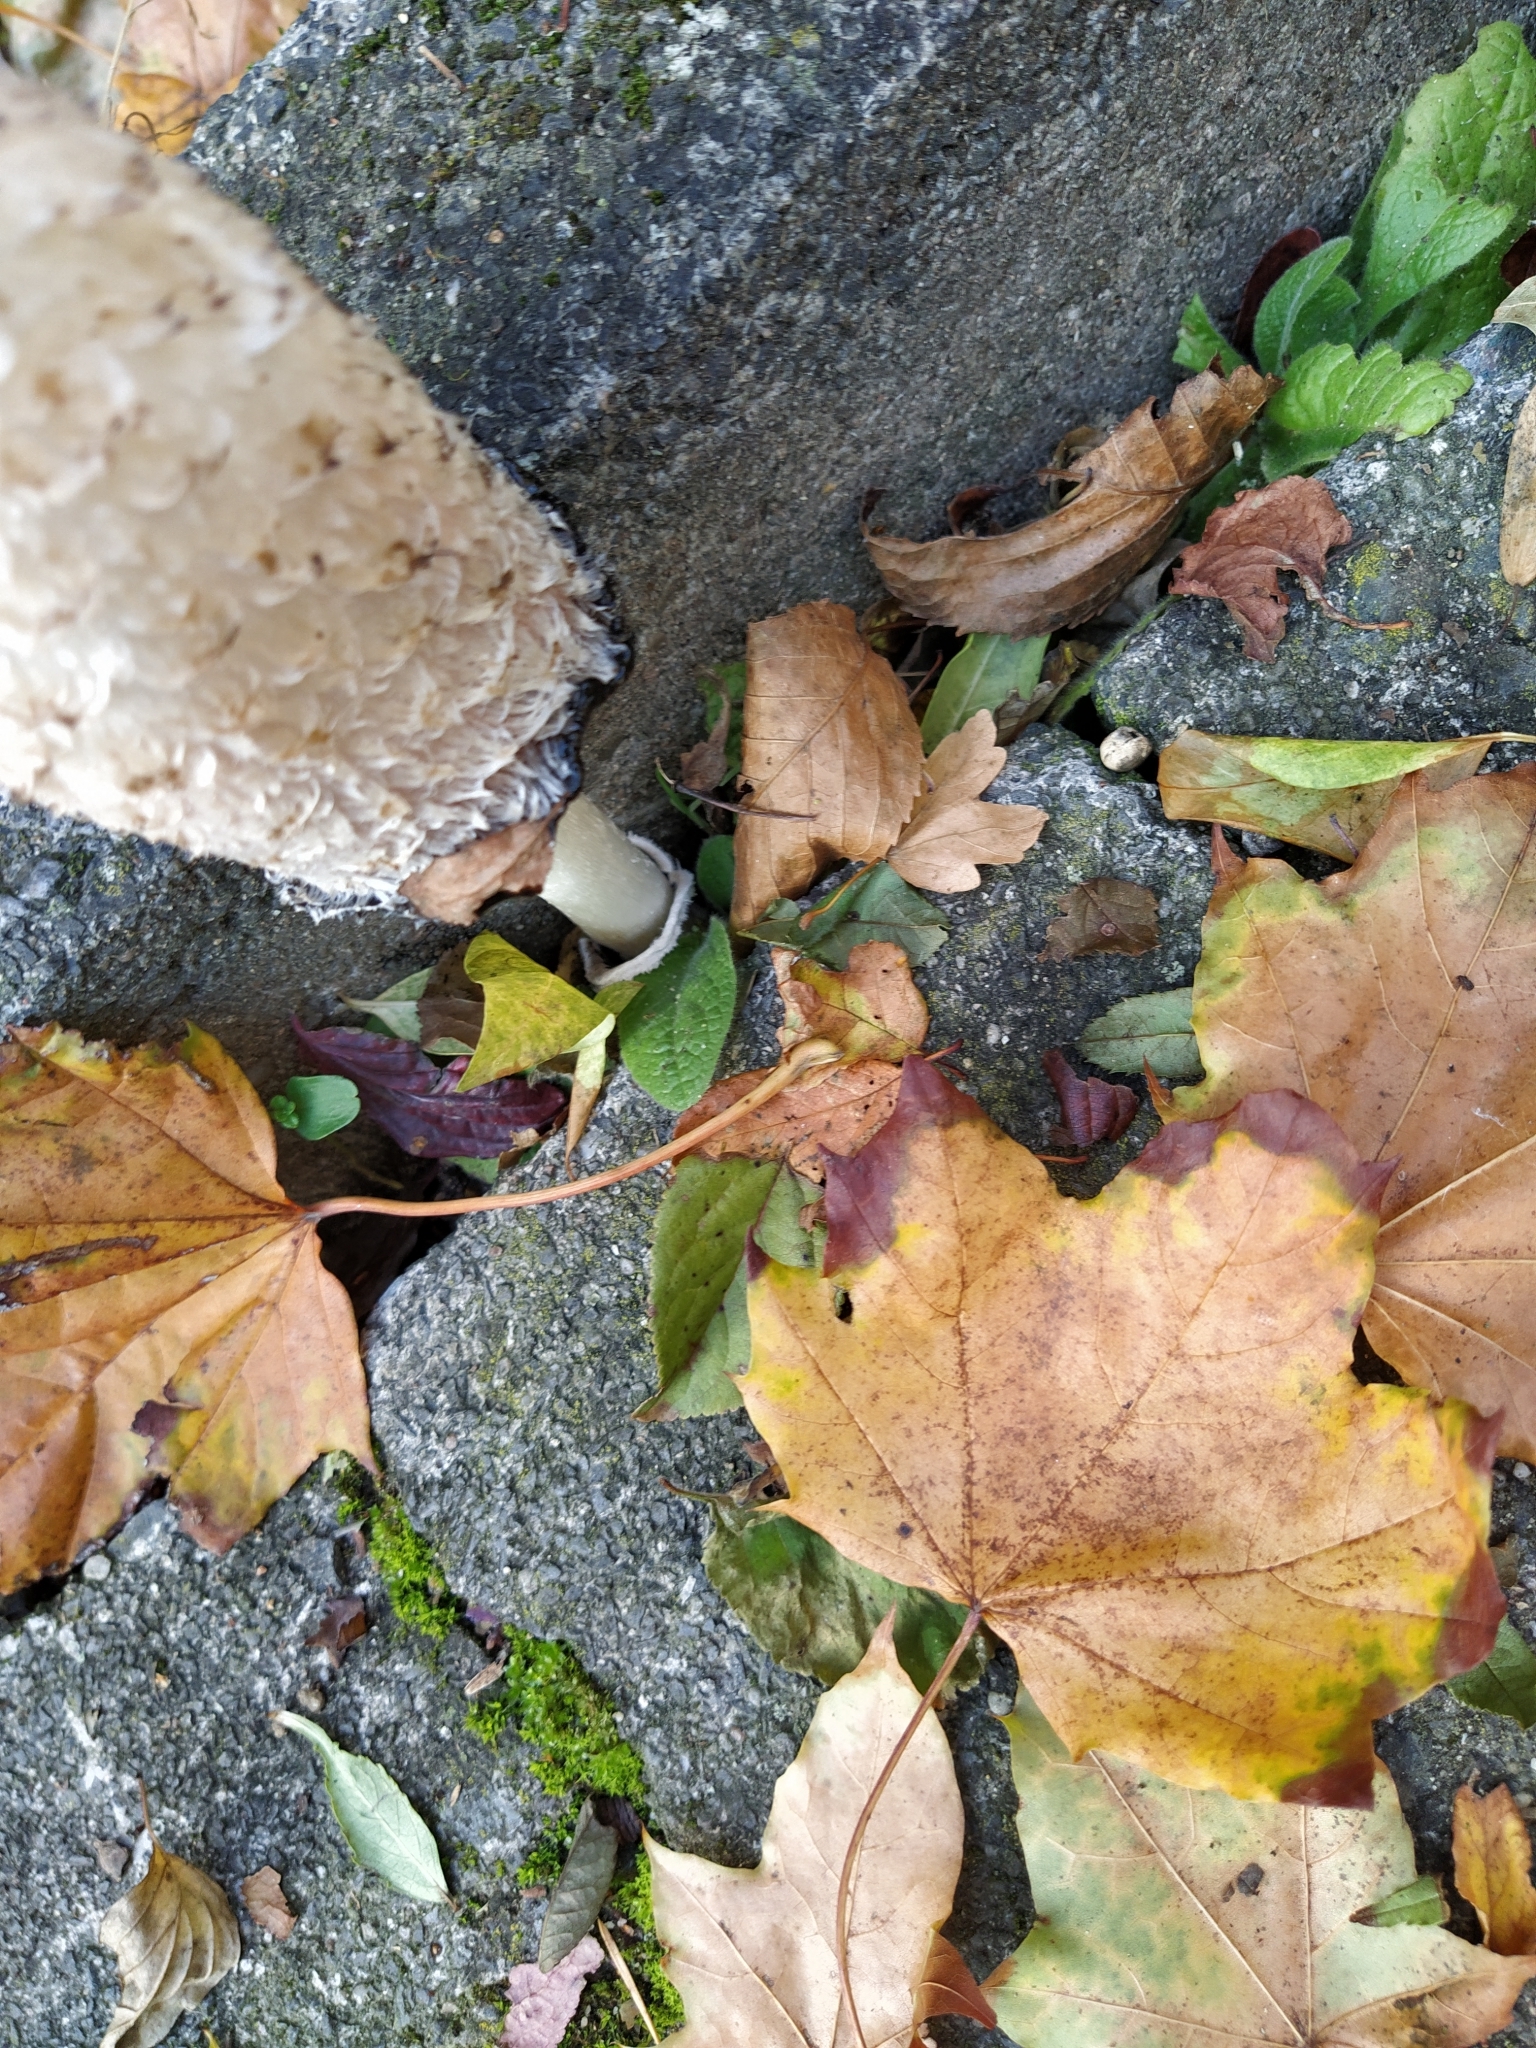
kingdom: Fungi
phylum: Basidiomycota
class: Agaricomycetes
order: Agaricales
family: Agaricaceae
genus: Coprinus
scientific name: Coprinus comatus
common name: Lawyer's wig
